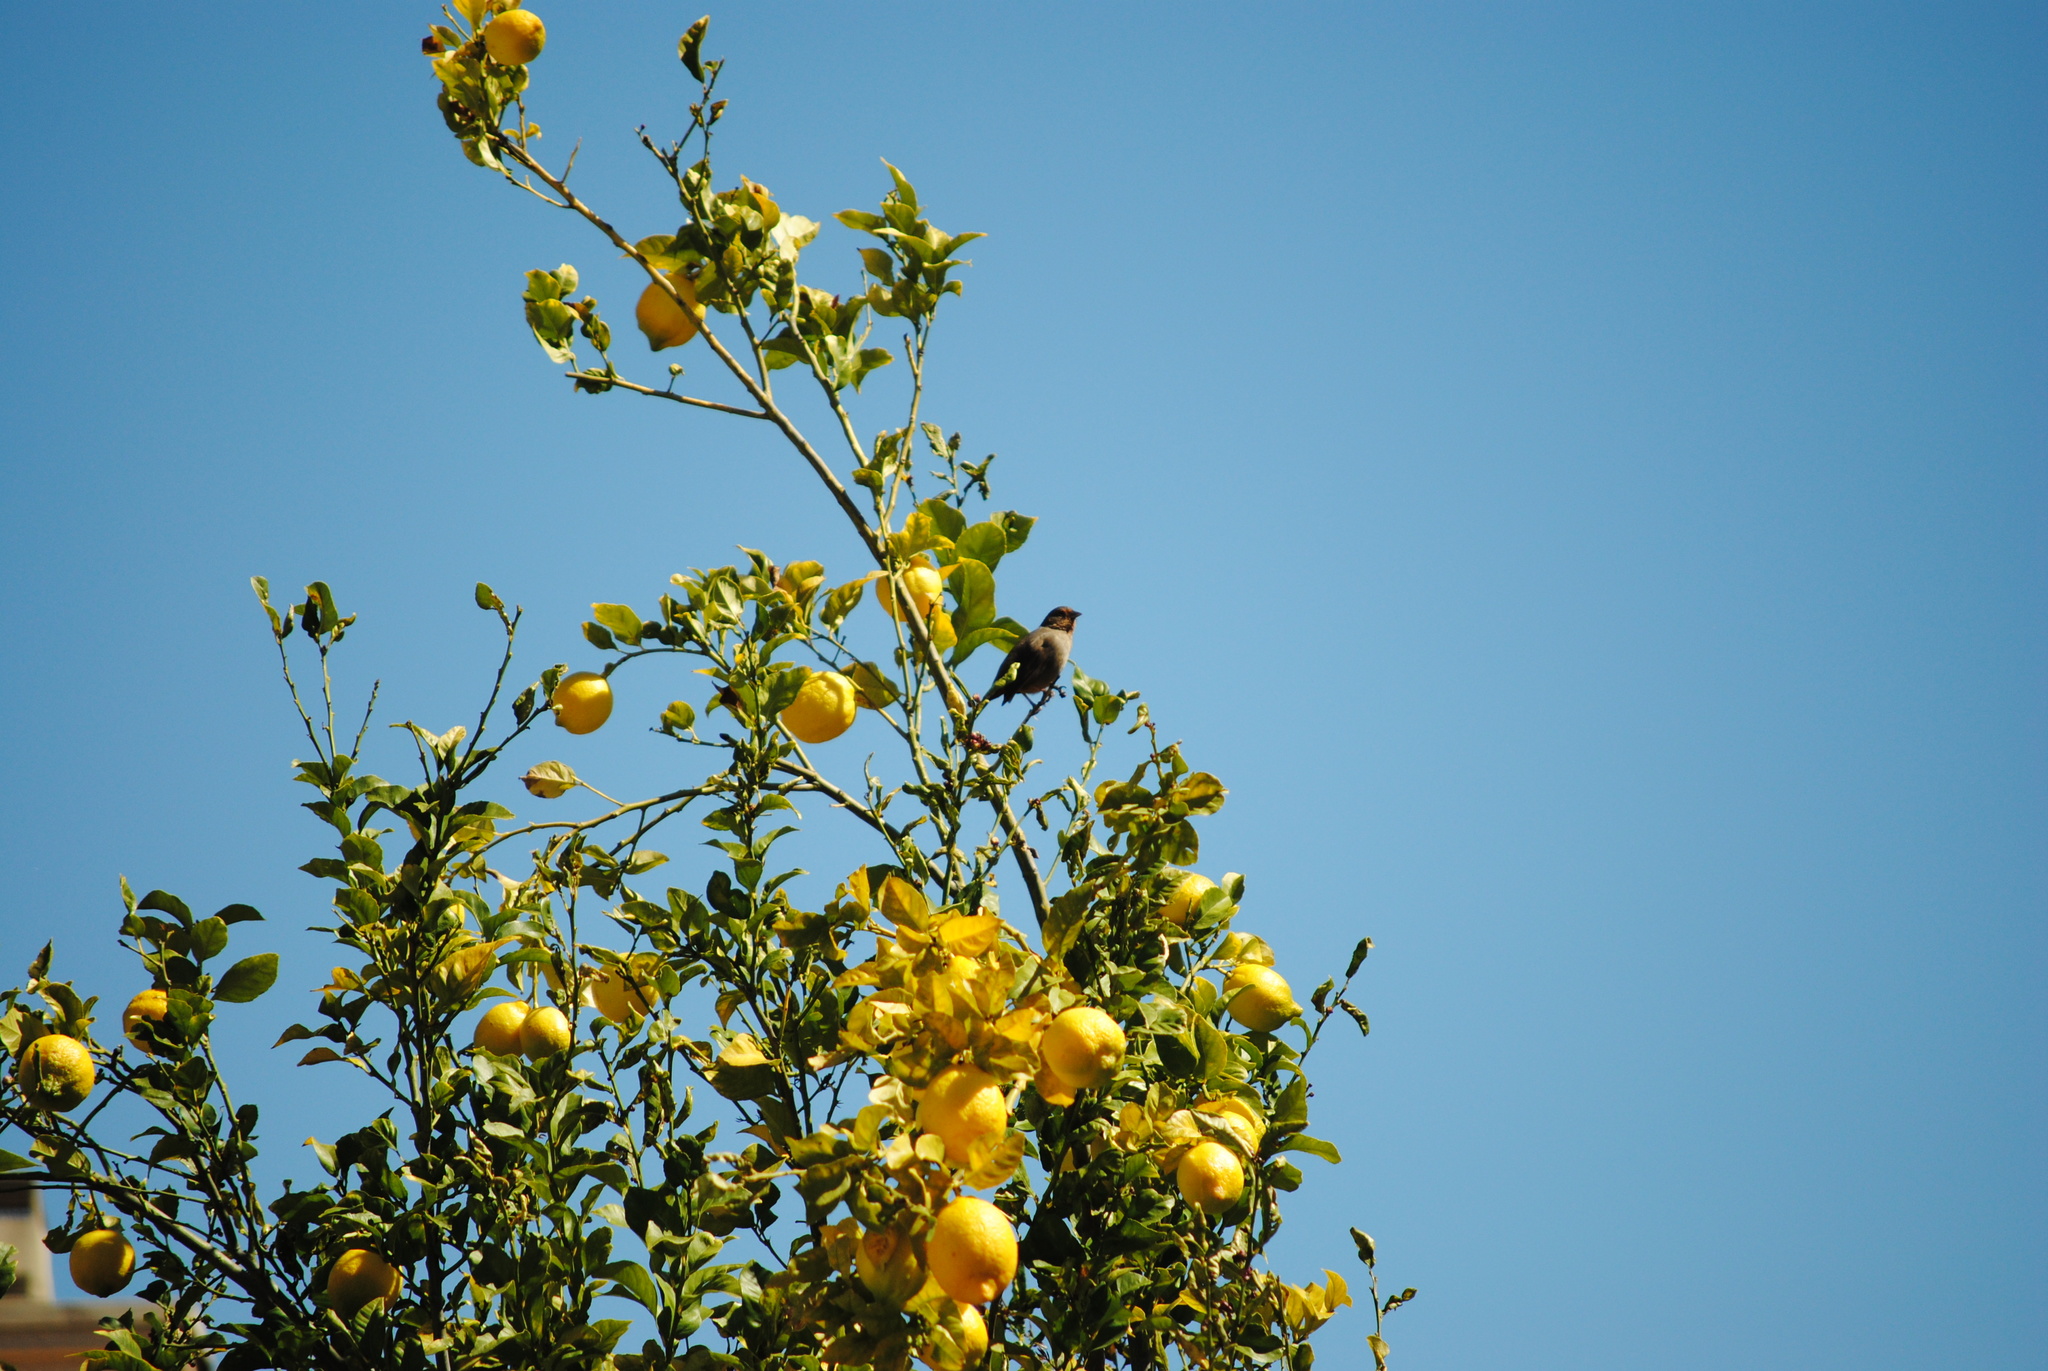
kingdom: Animalia
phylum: Chordata
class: Aves
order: Passeriformes
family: Passerellidae
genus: Melozone
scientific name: Melozone crissalis
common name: California towhee
